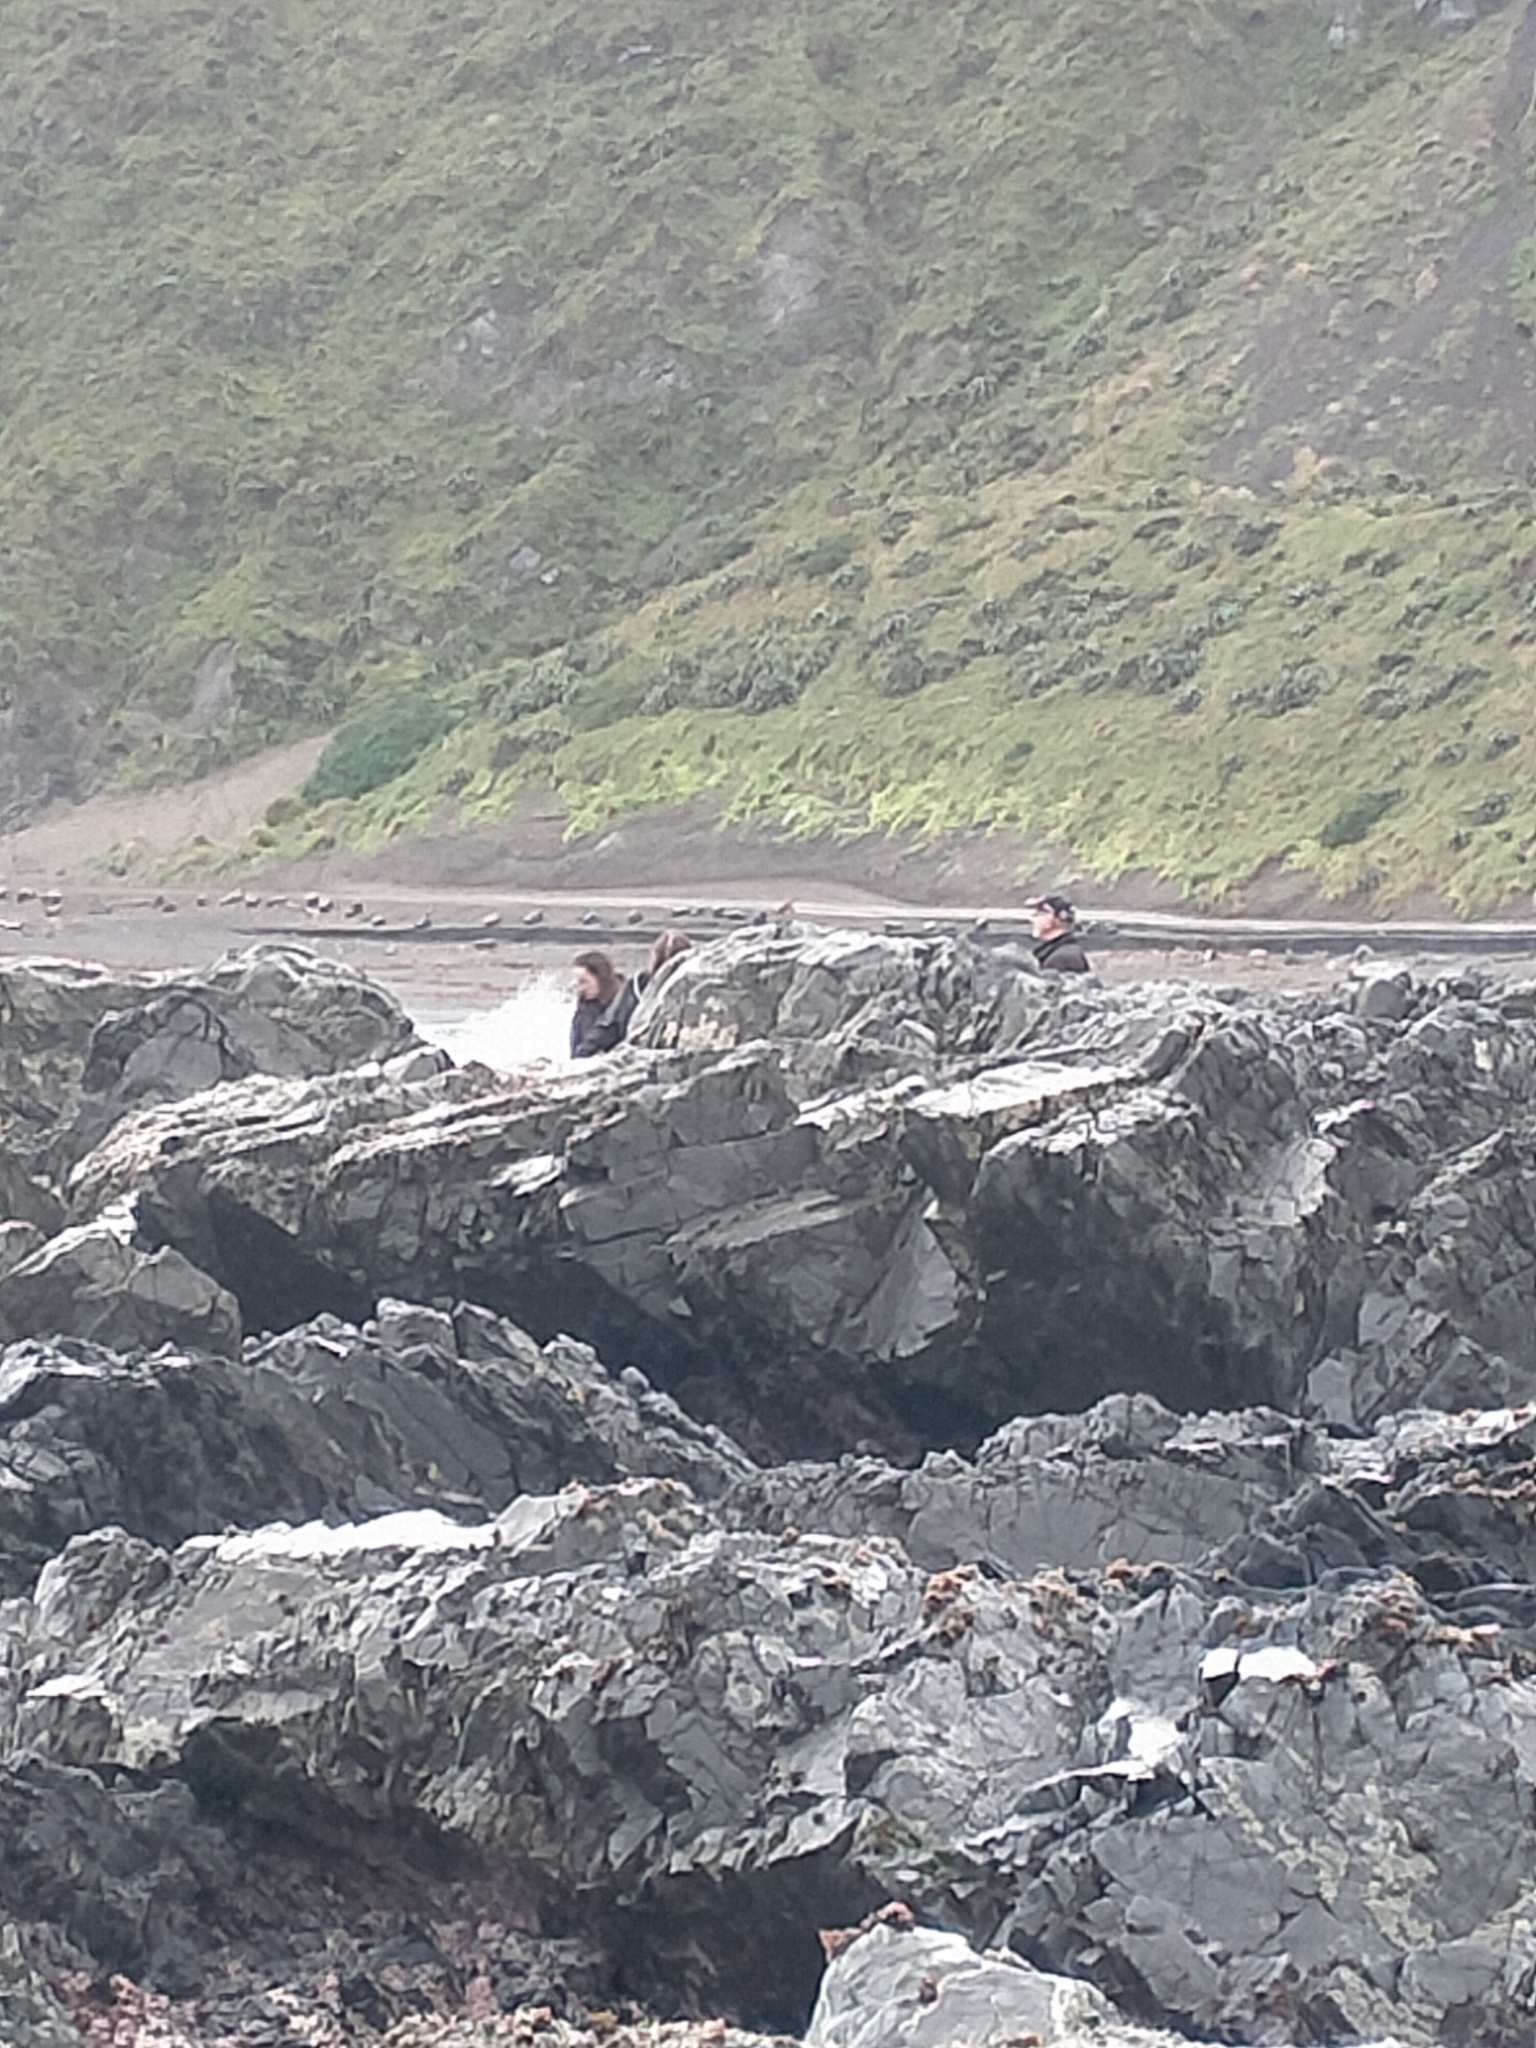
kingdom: Animalia
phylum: Chordata
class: Aves
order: Passeriformes
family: Motacillidae
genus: Anthus
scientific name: Anthus novaeseelandiae
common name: New zealand pipit
